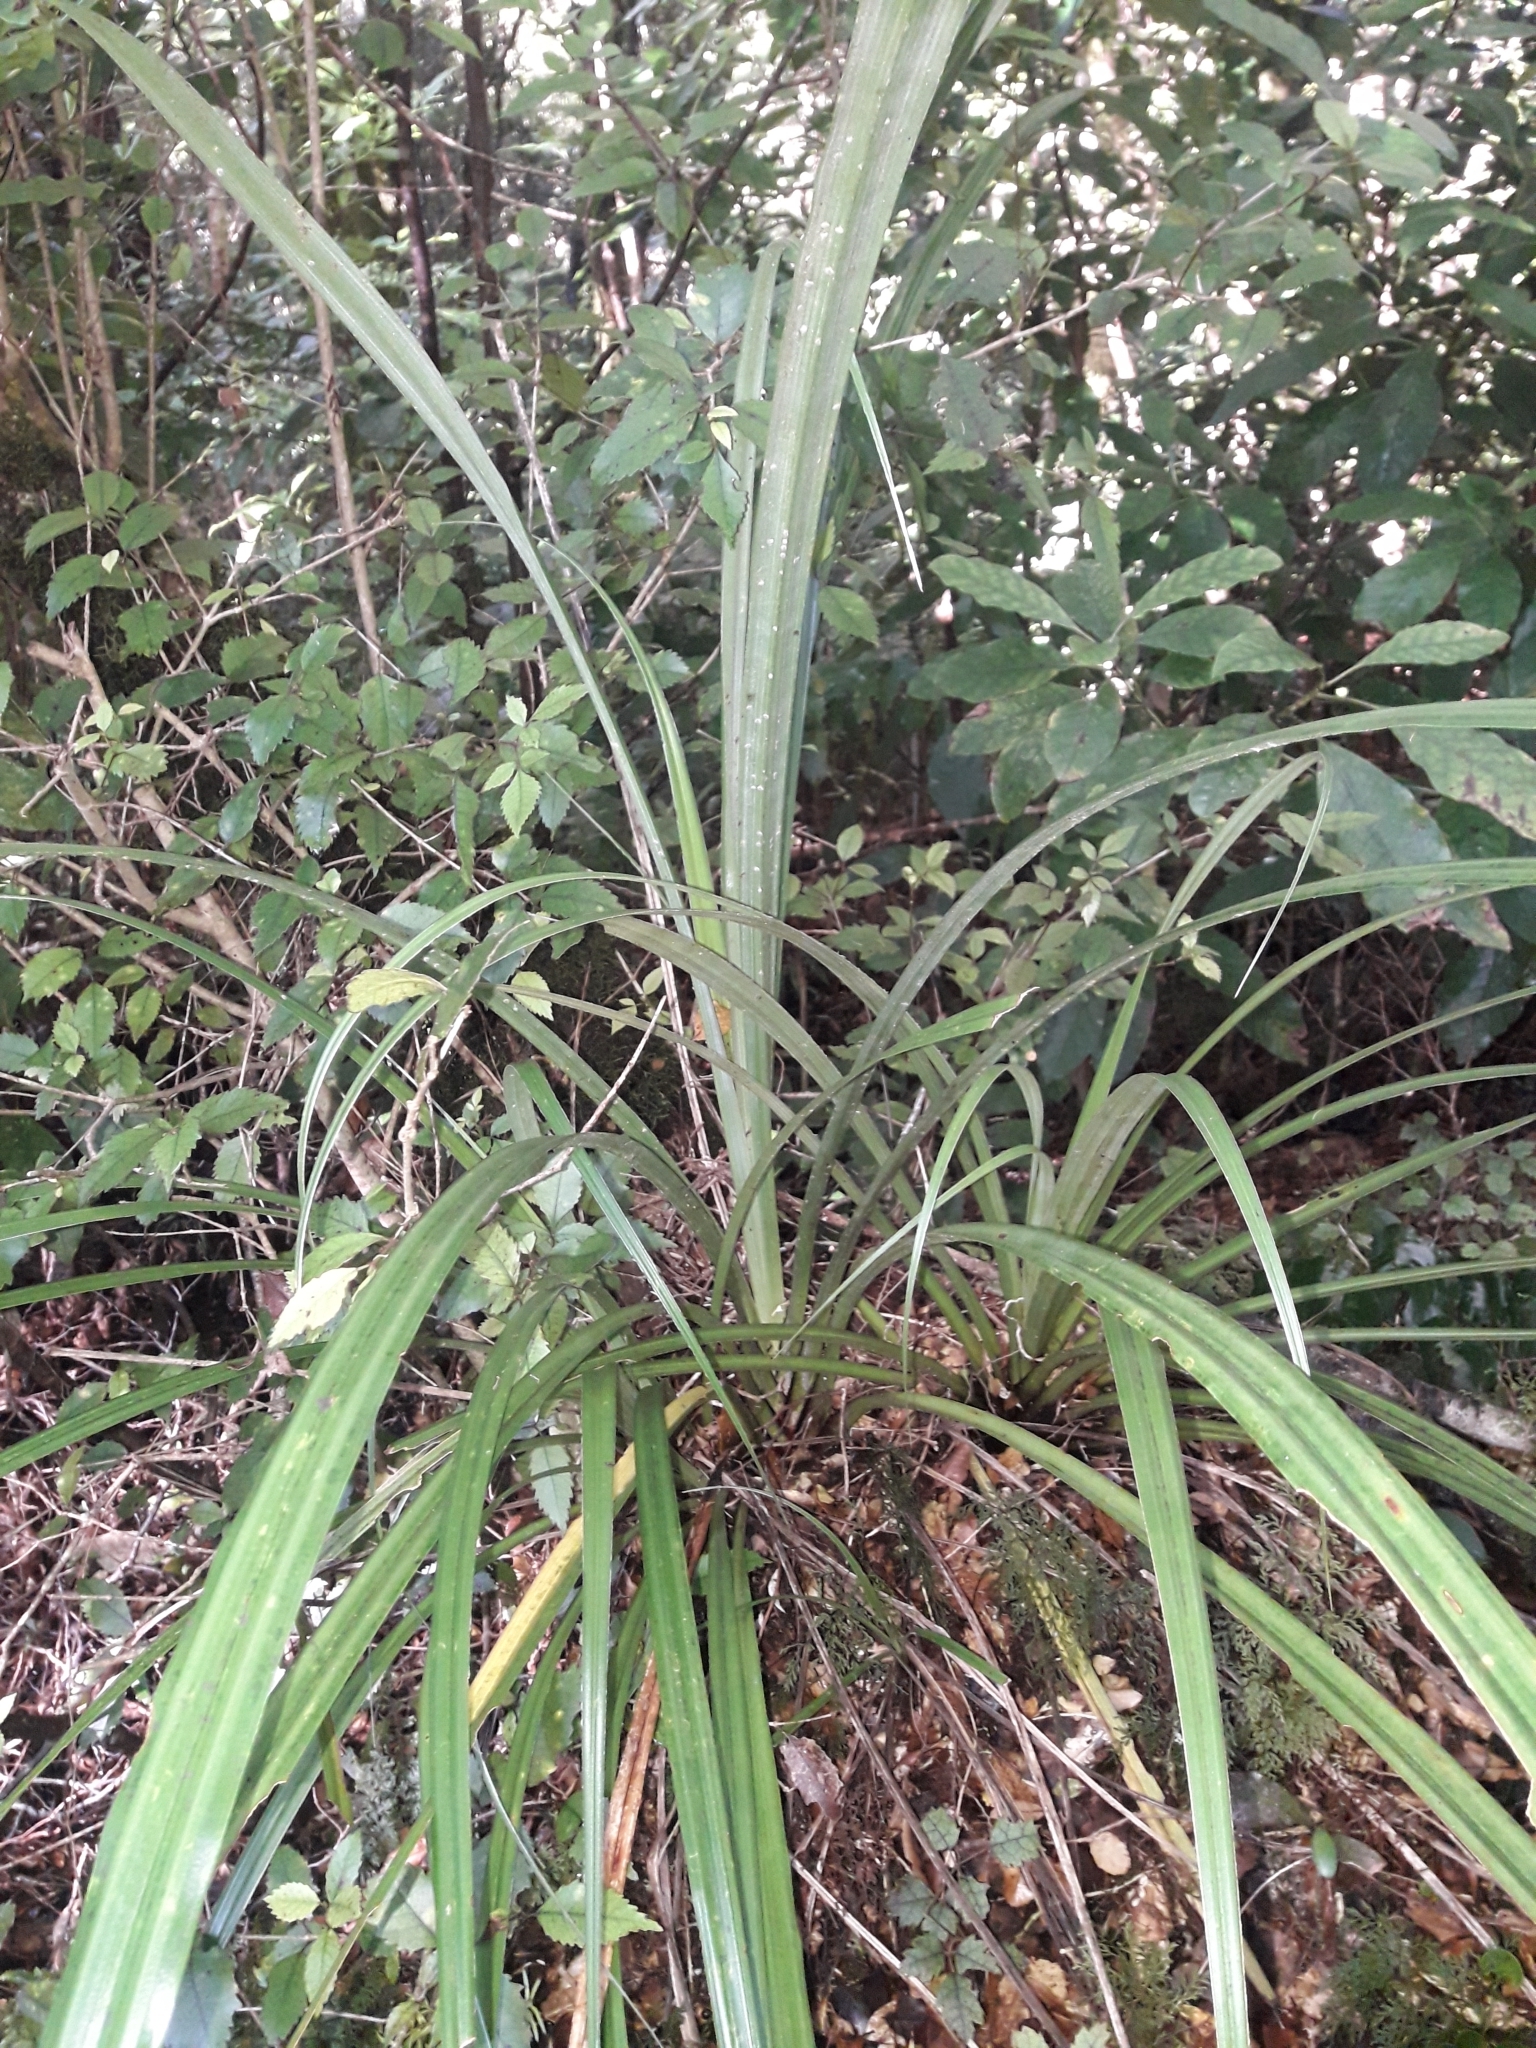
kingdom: Plantae
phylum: Tracheophyta
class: Liliopsida
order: Asparagales
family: Asteliaceae
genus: Astelia
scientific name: Astelia solandri
